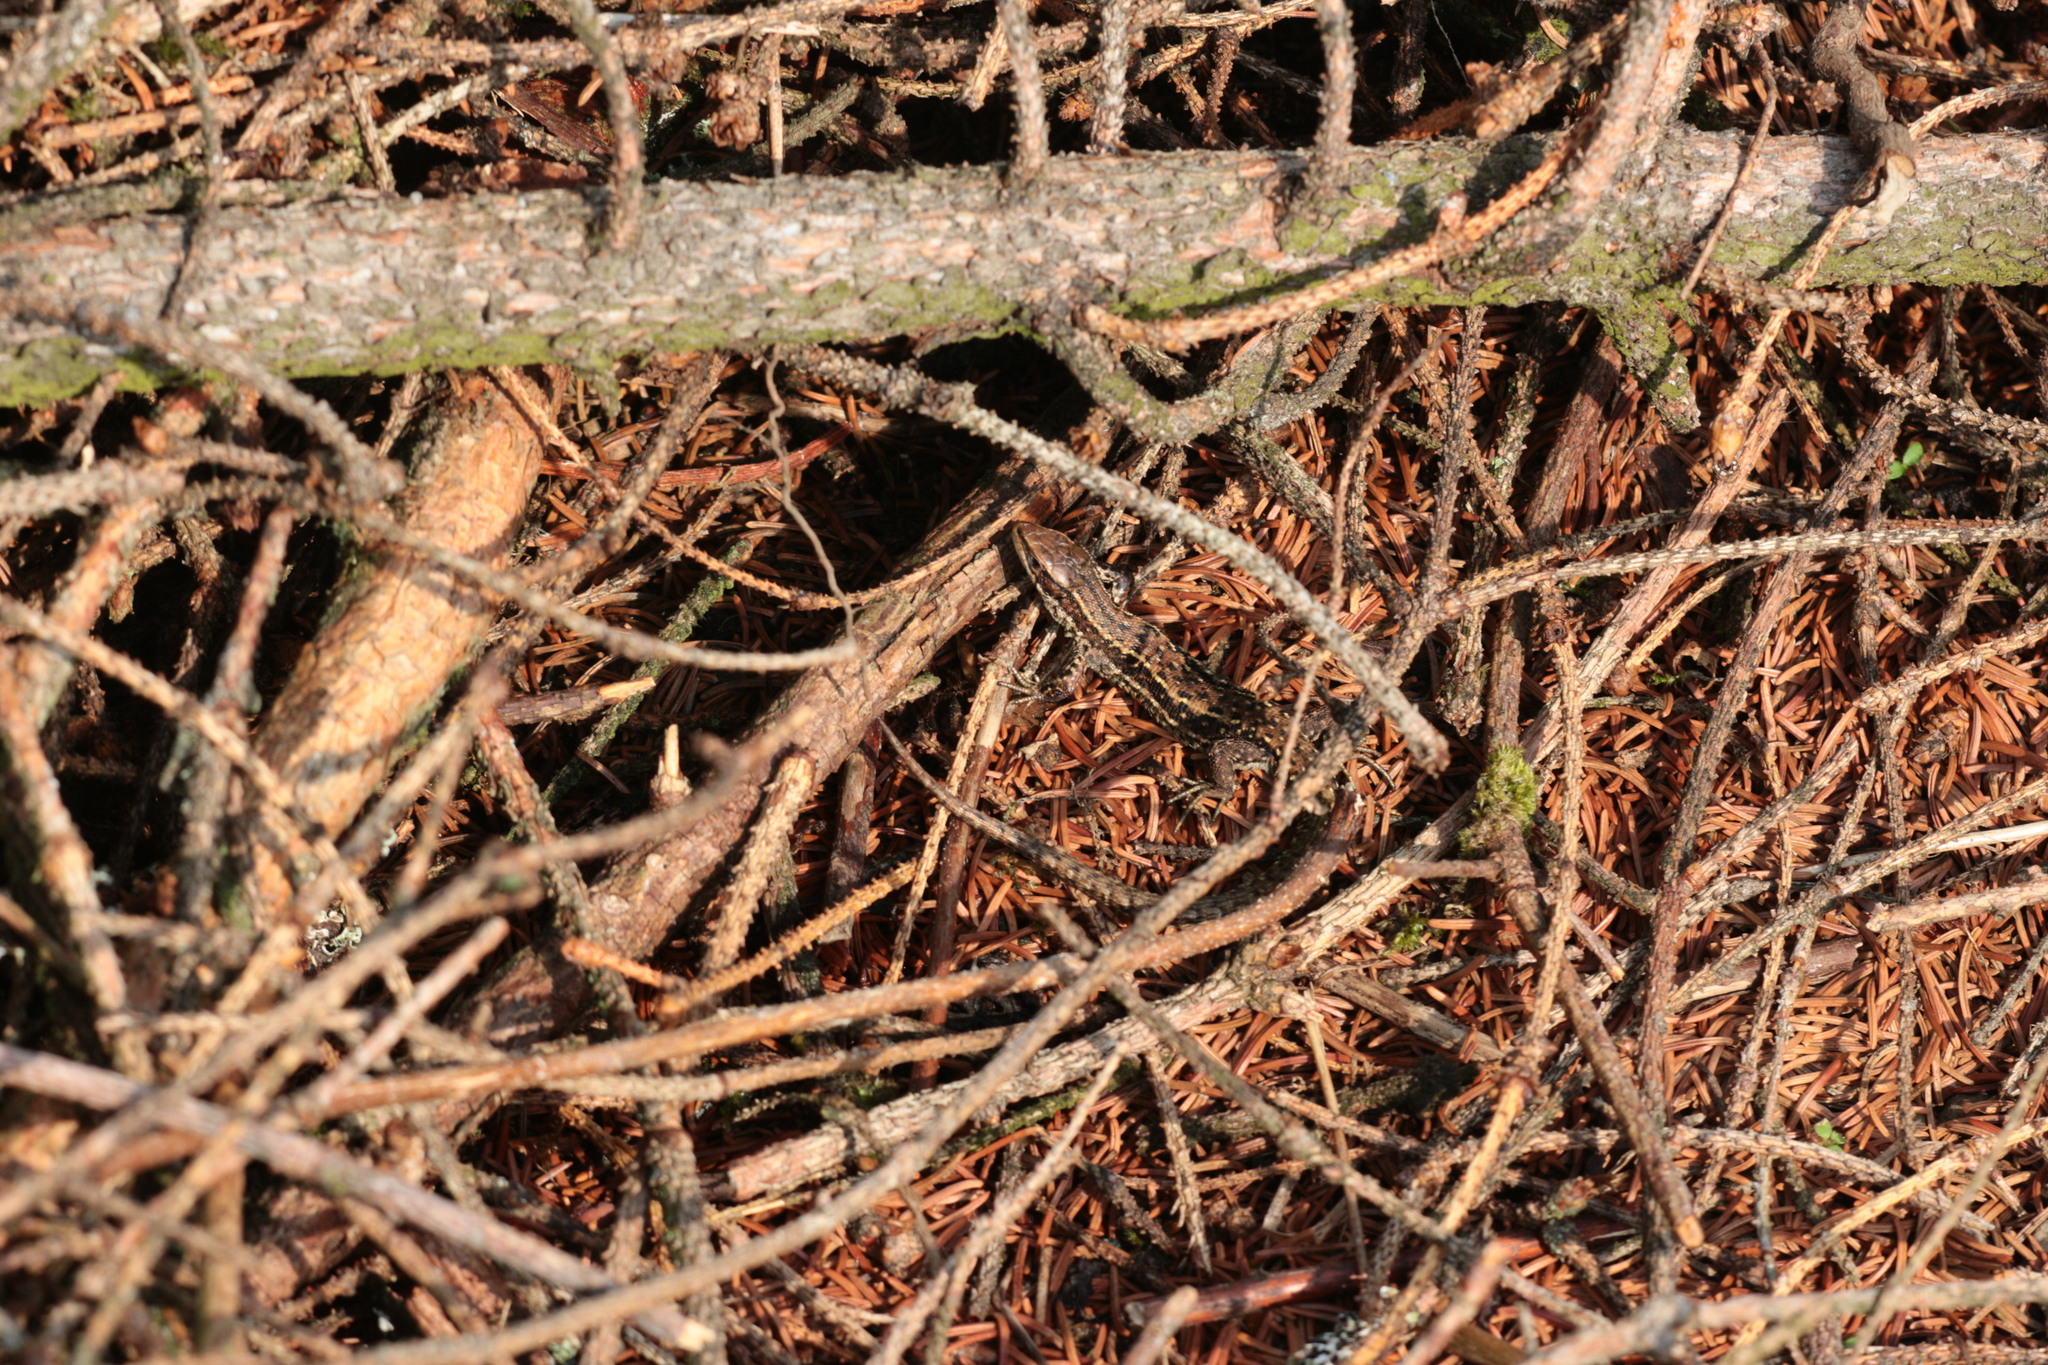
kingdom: Animalia
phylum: Chordata
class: Squamata
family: Lacertidae
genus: Zootoca
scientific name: Zootoca vivipara
